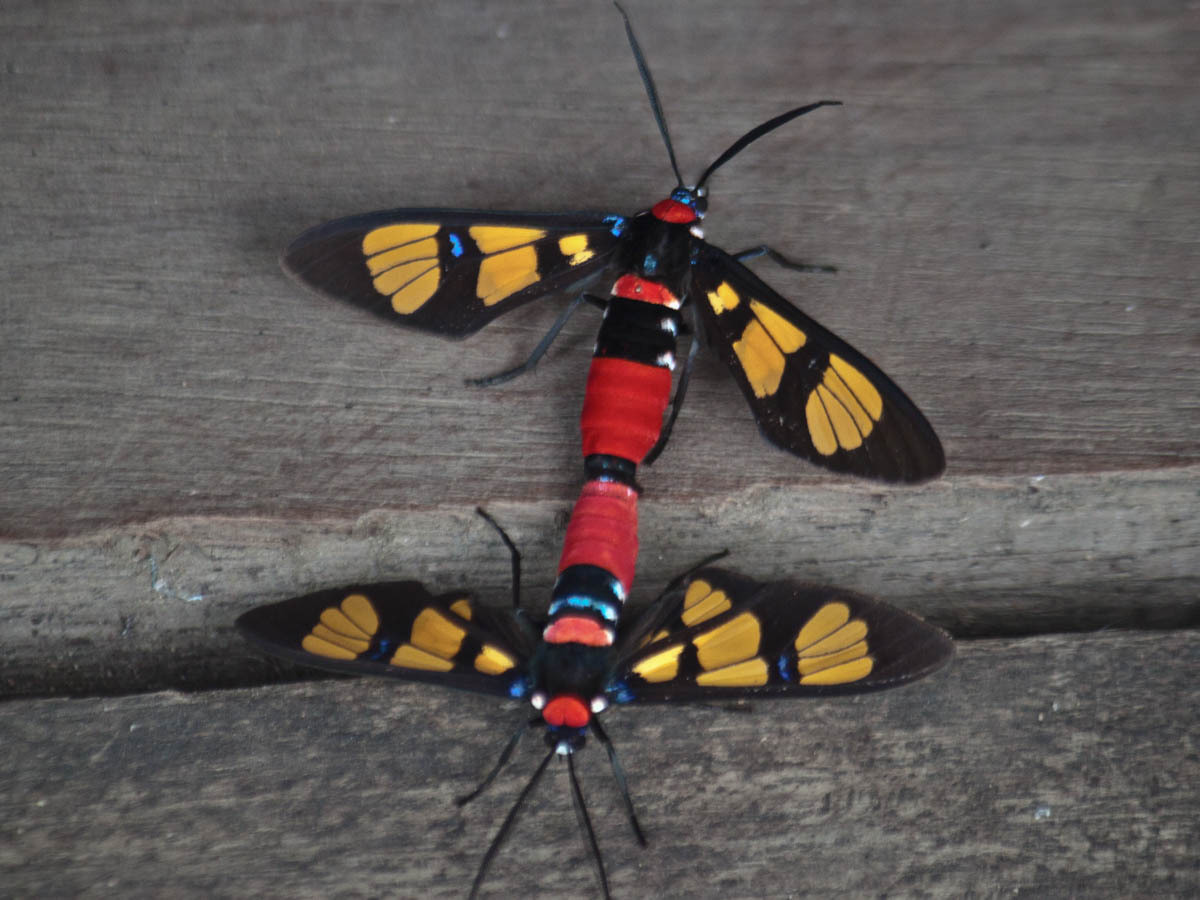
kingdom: Animalia
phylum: Arthropoda
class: Insecta
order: Lepidoptera
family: Erebidae
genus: Euchromia
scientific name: Euchromia polymena
